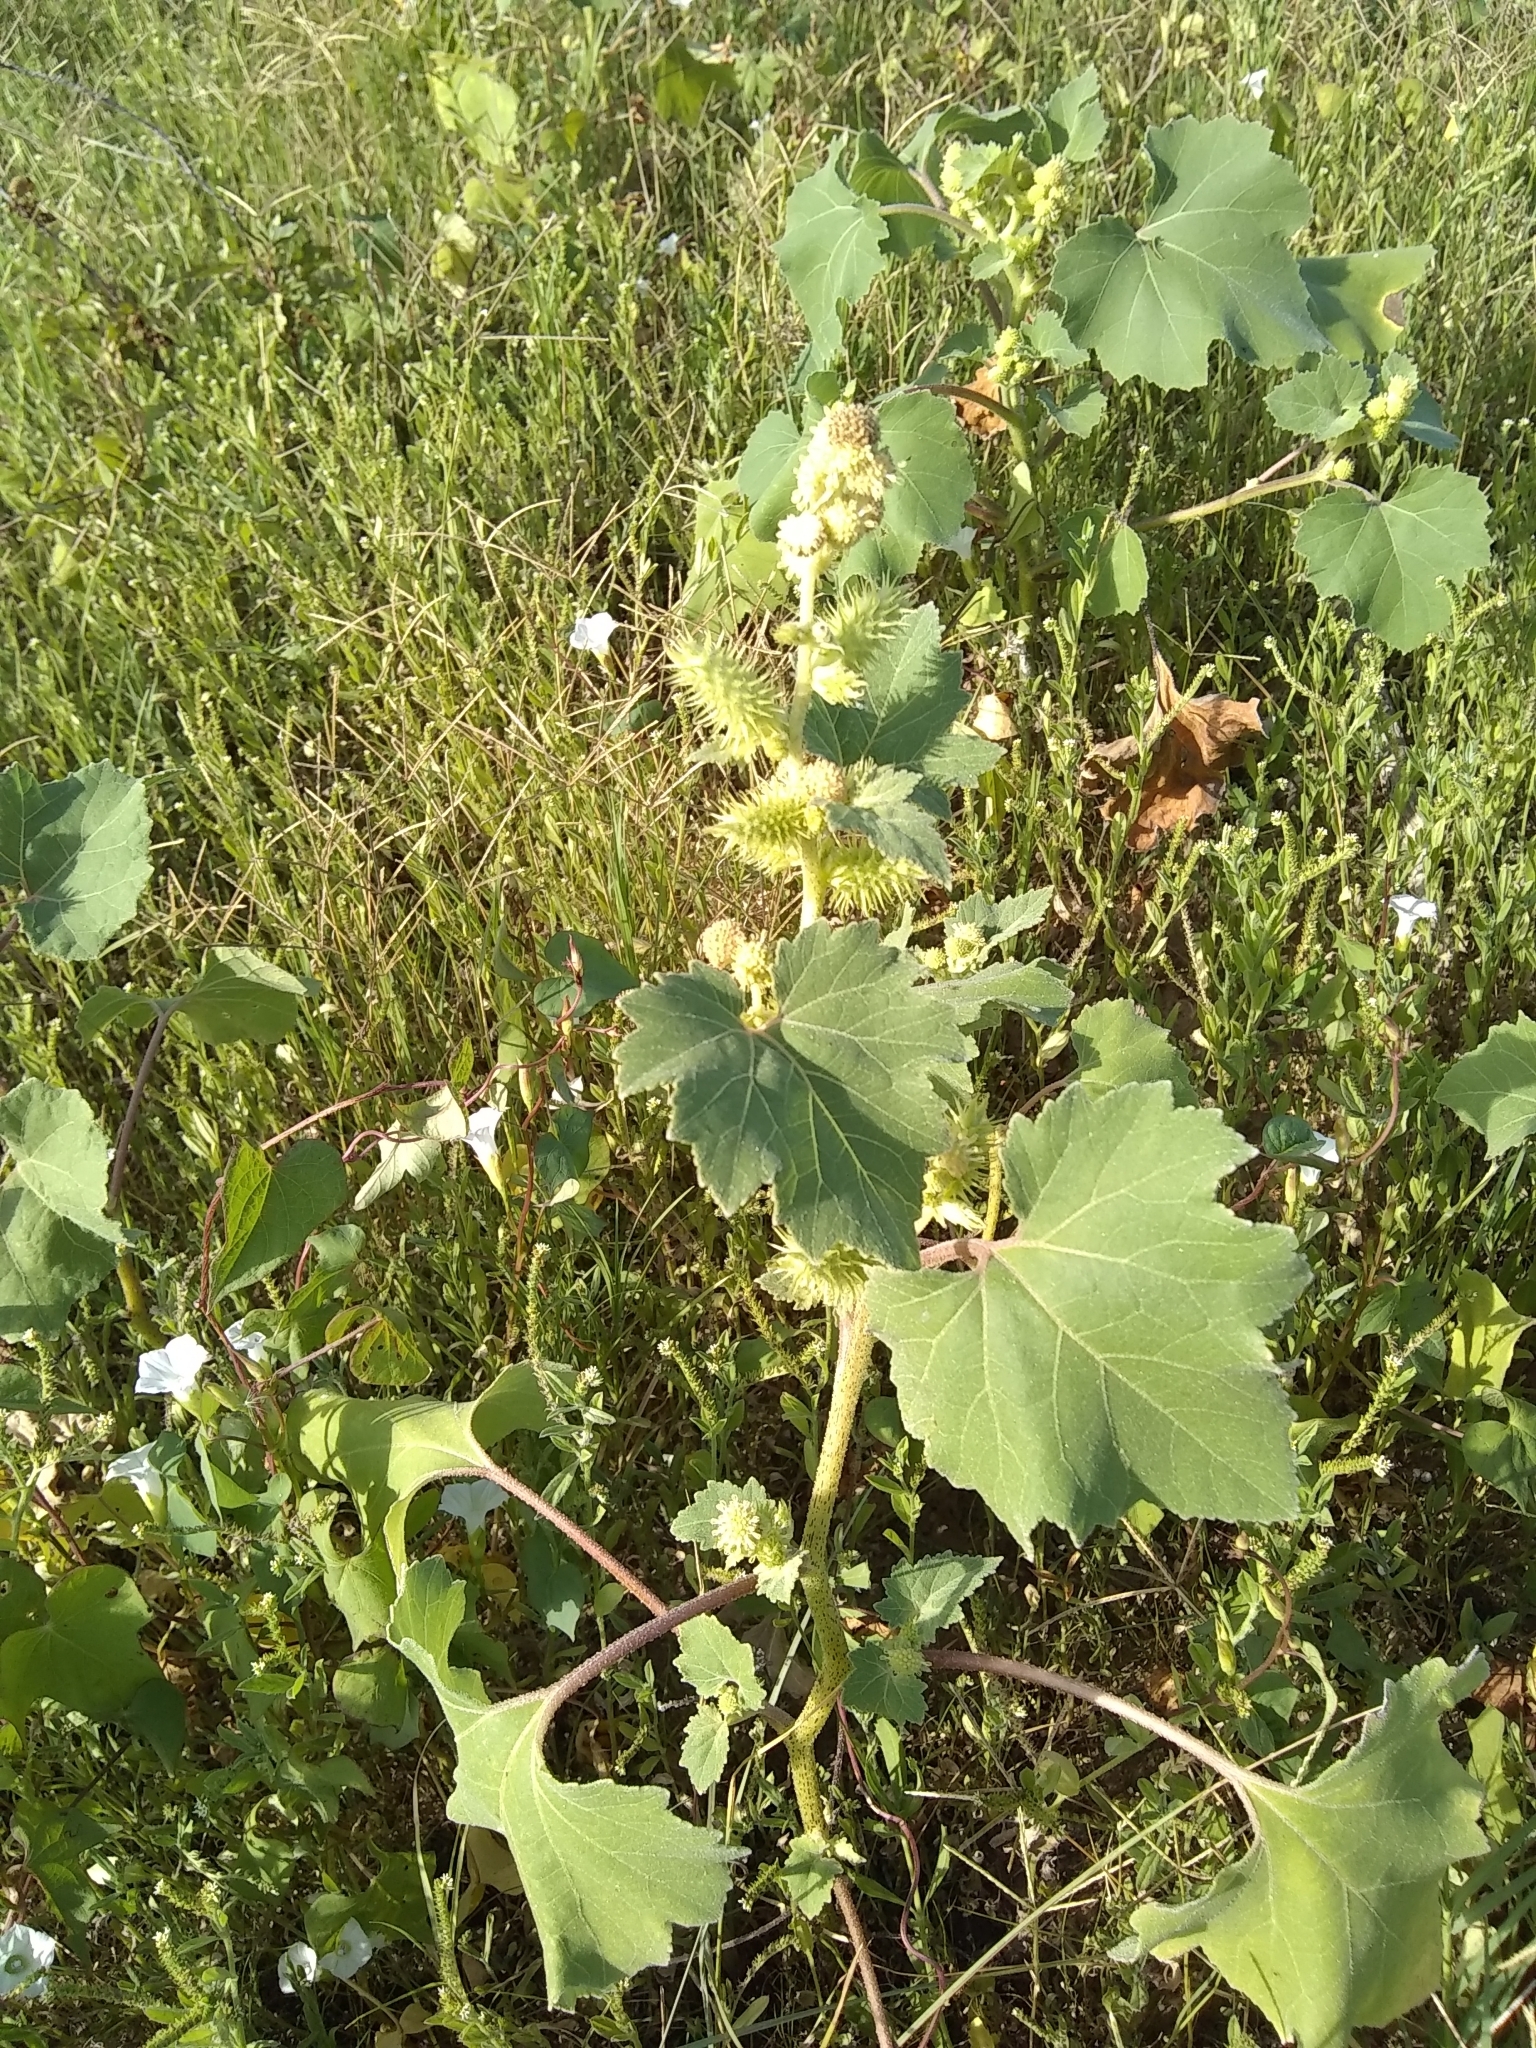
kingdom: Plantae
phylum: Tracheophyta
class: Magnoliopsida
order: Asterales
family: Asteraceae
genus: Xanthium
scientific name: Xanthium strumarium
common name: Rough cocklebur
